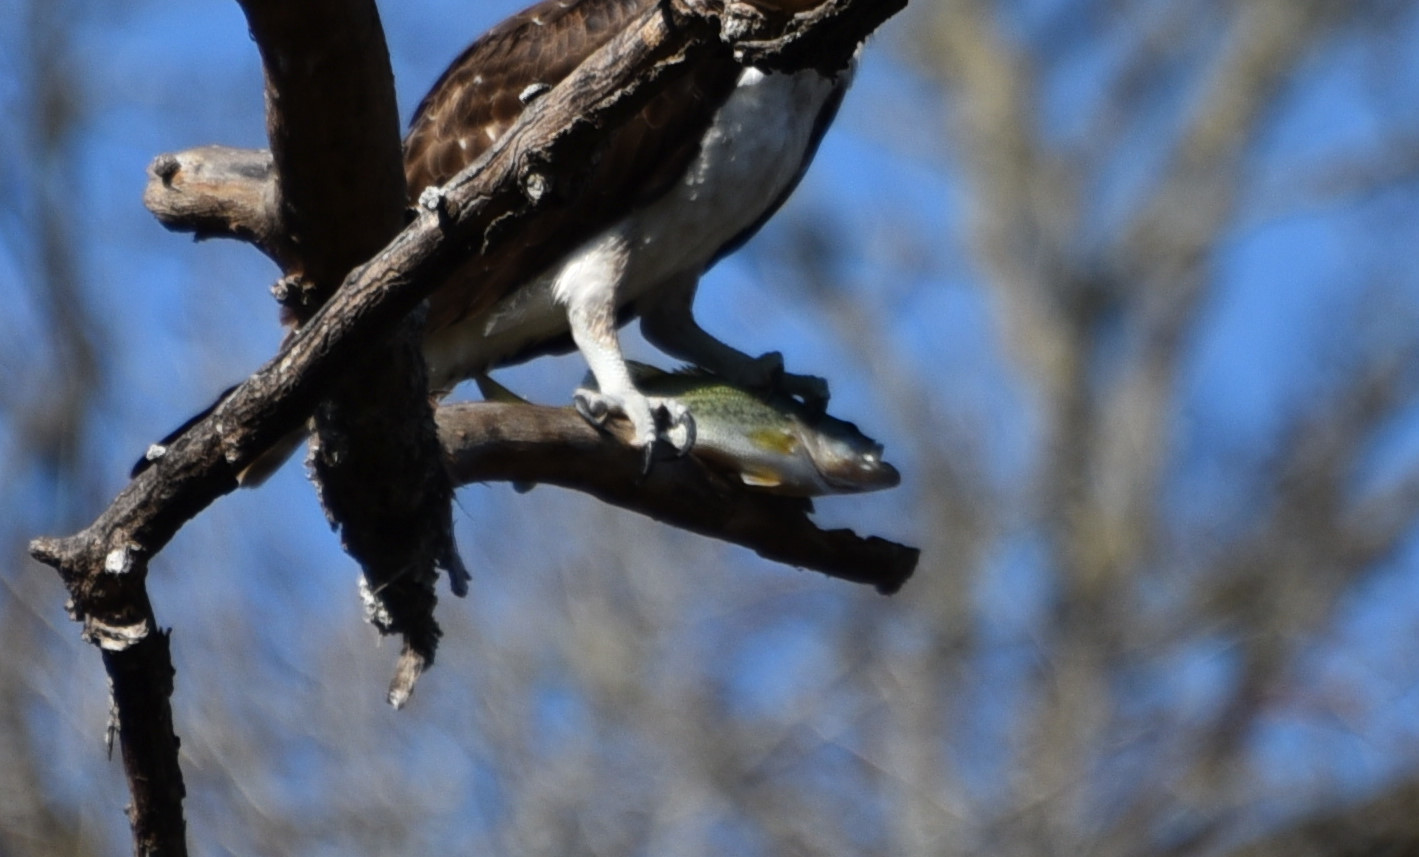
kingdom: Animalia
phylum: Chordata
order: Perciformes
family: Centrarchidae
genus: Micropterus
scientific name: Micropterus
